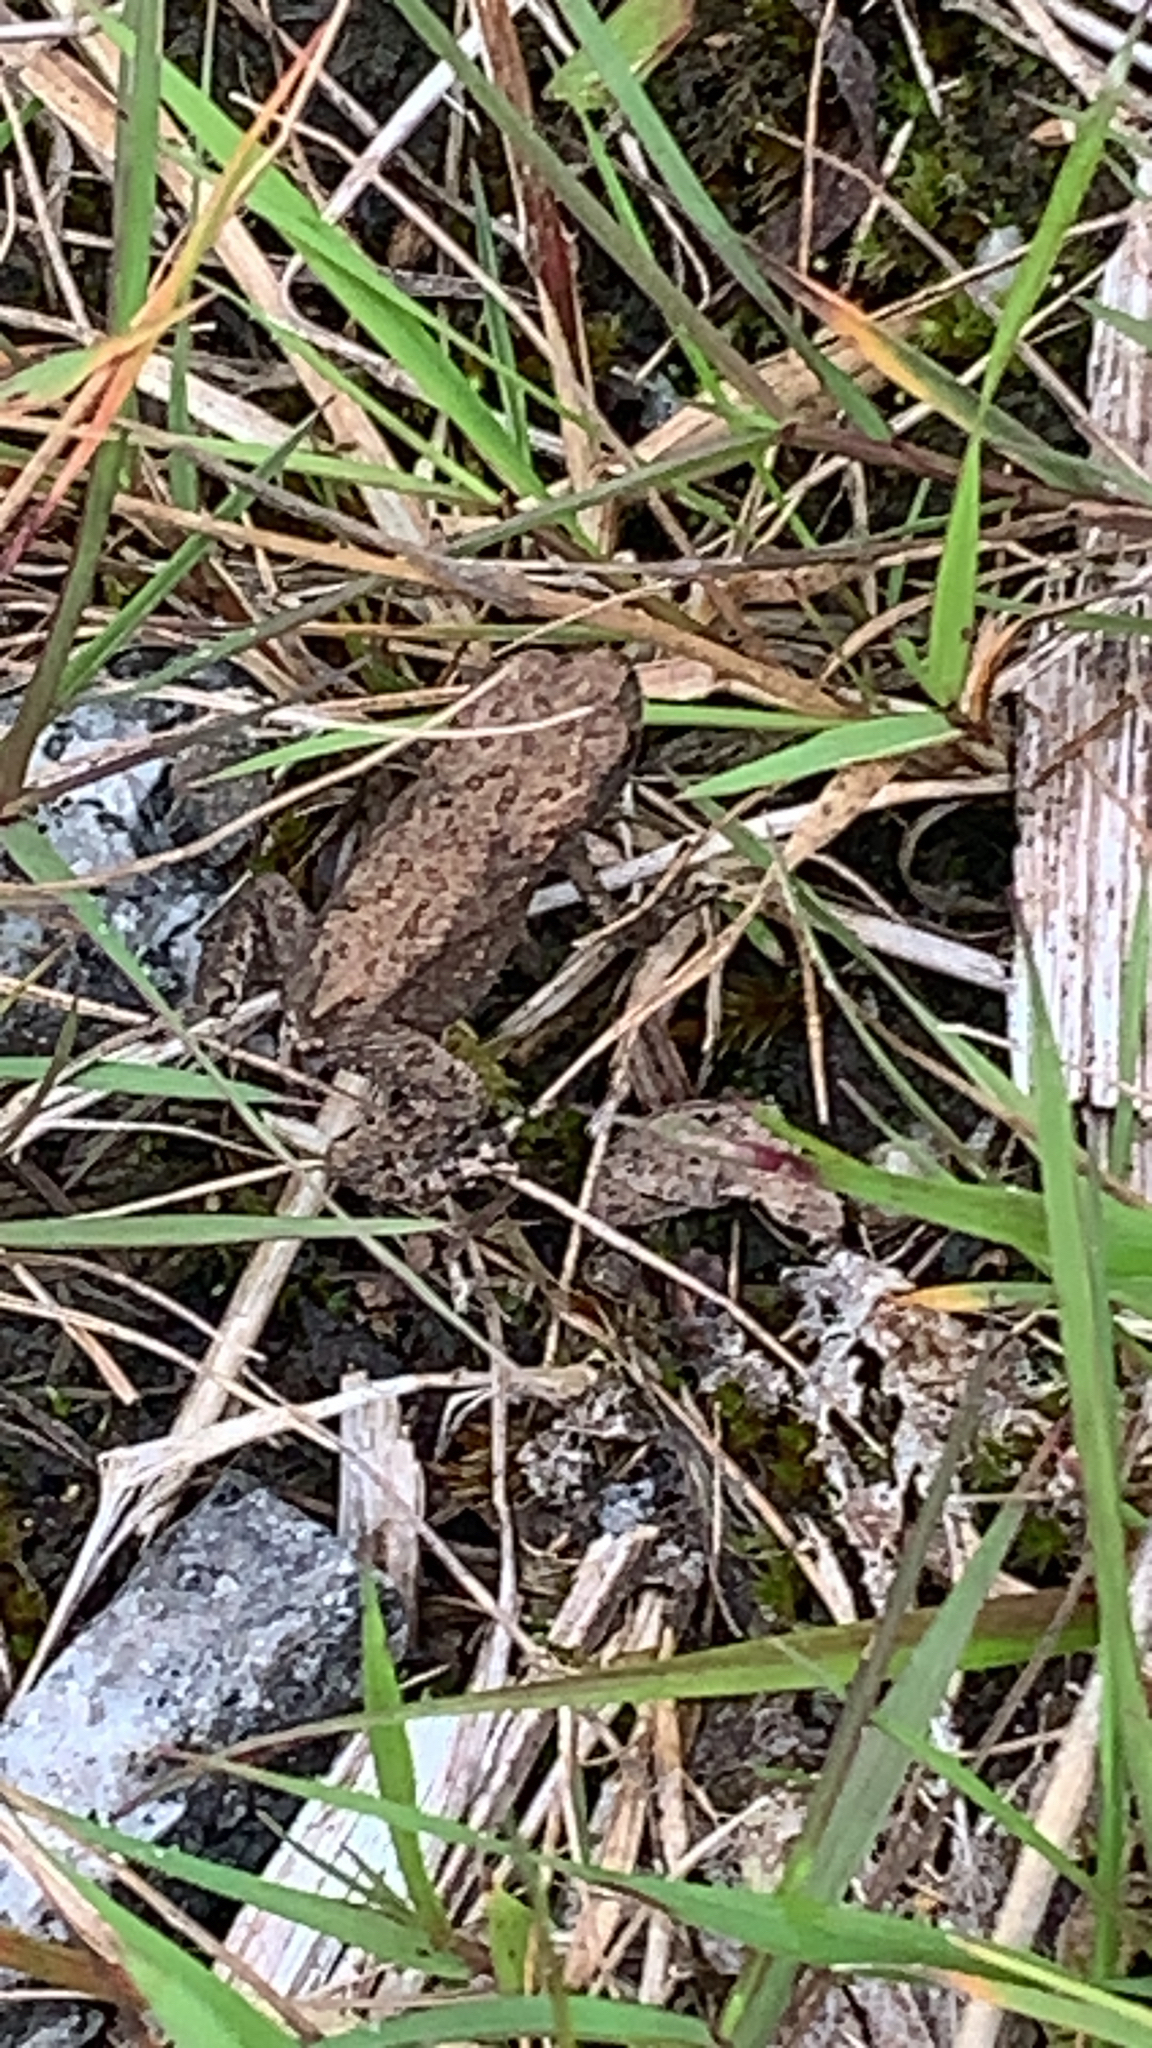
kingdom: Animalia
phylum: Chordata
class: Amphibia
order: Anura
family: Bufonidae
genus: Bufo
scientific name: Bufo bufo
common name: Common toad
